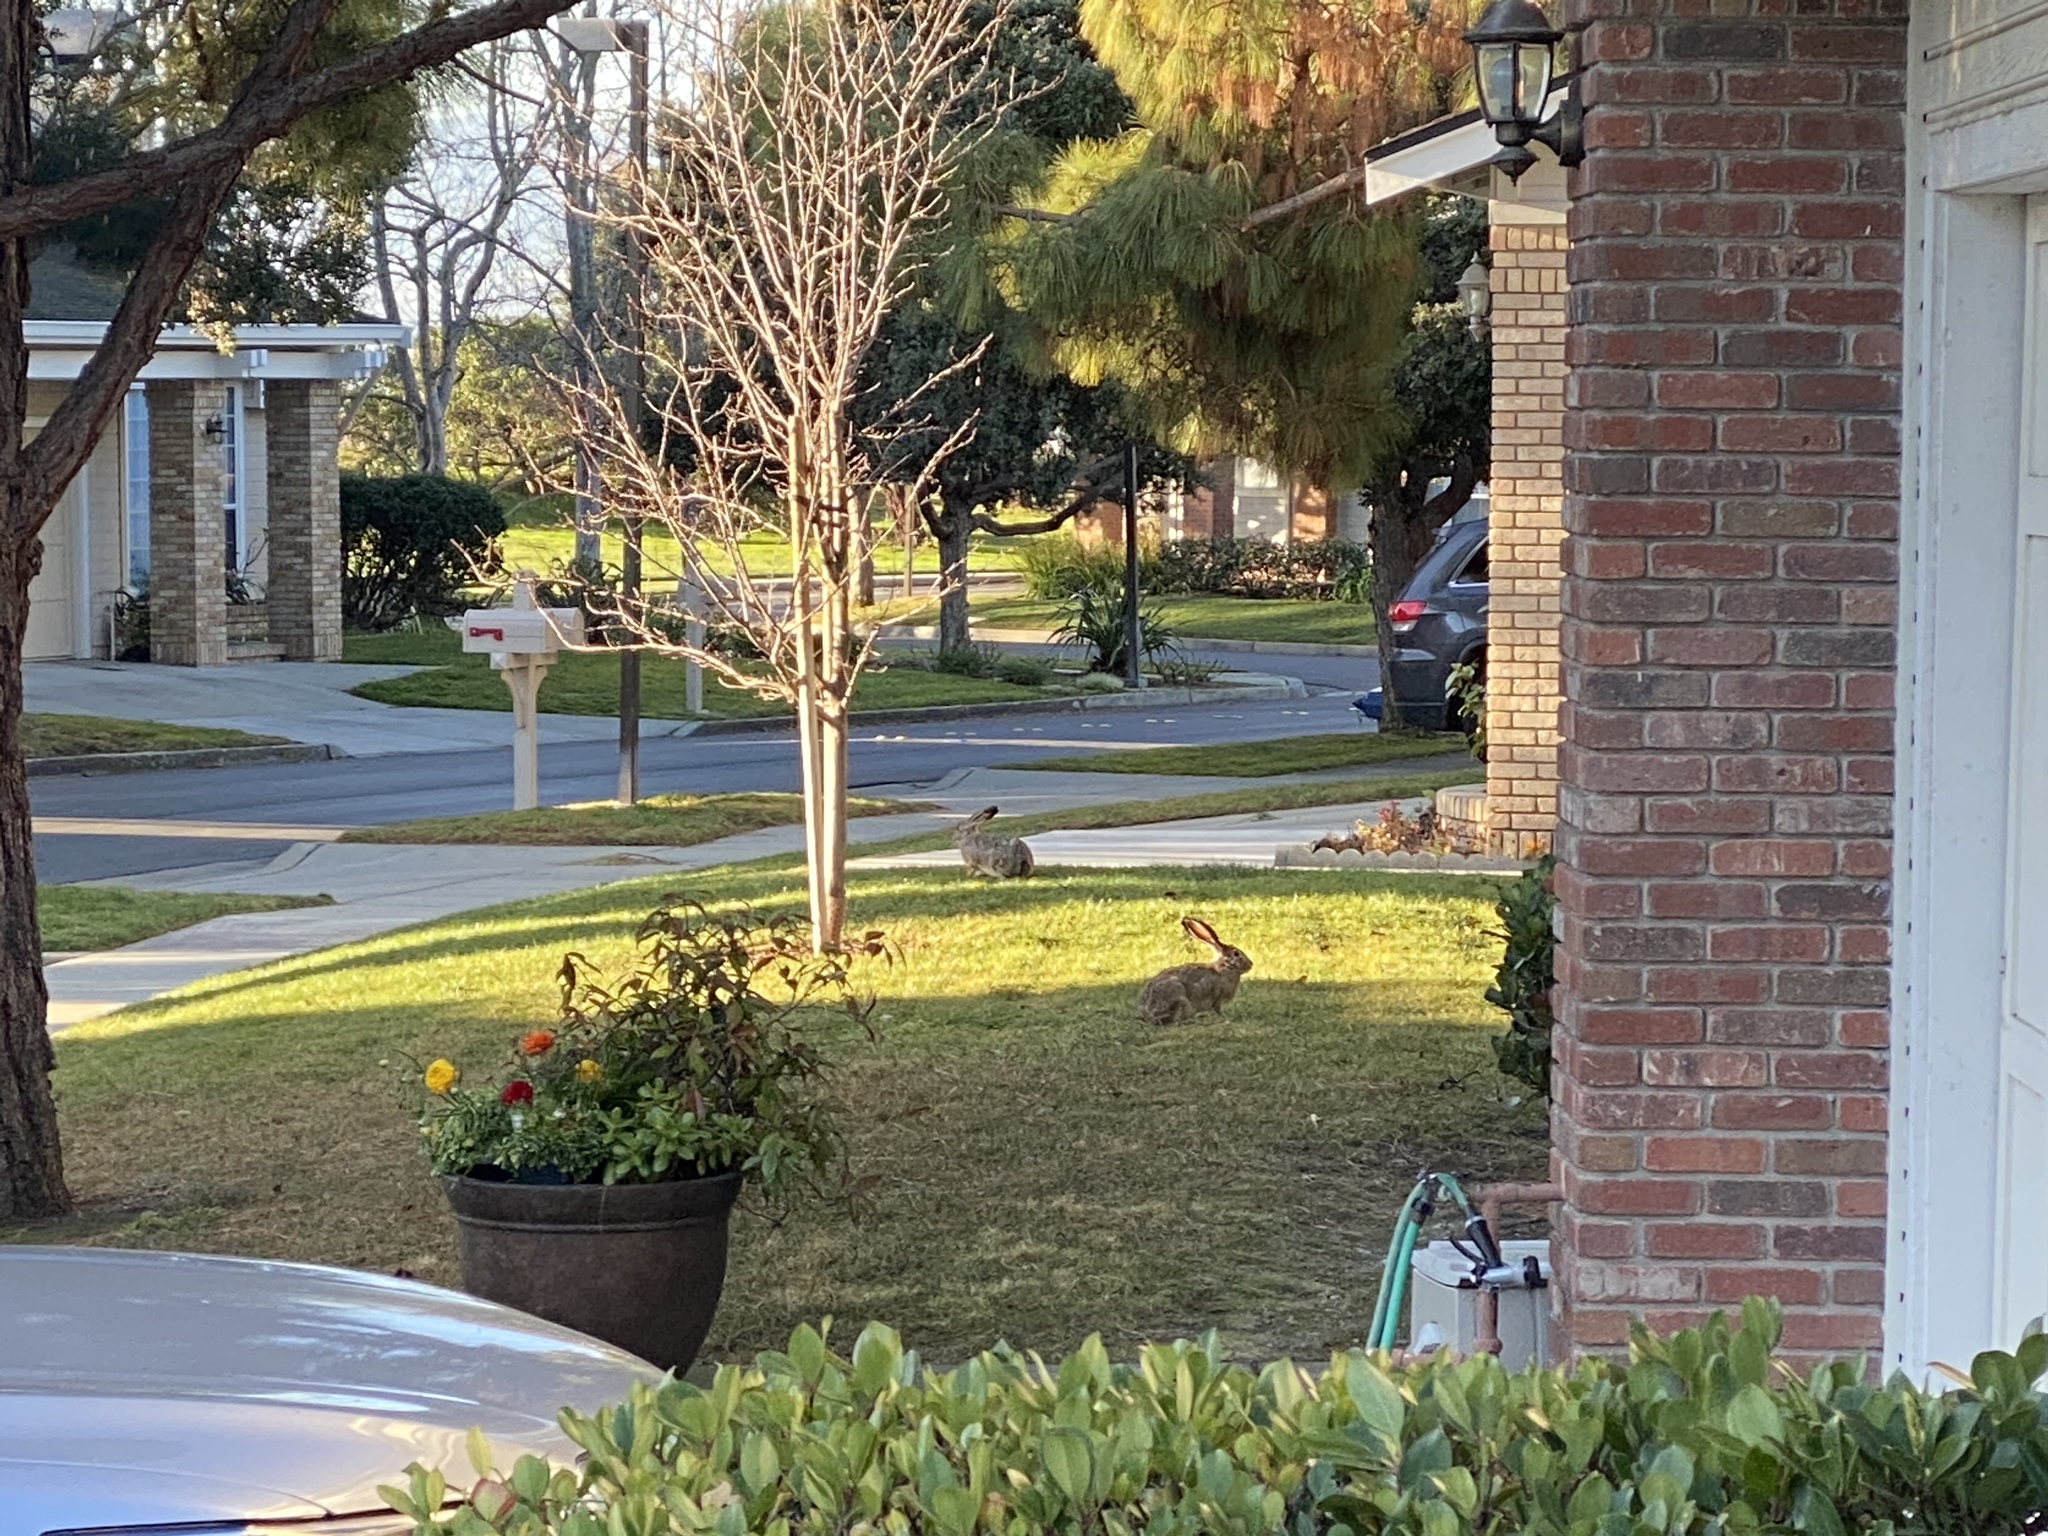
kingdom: Animalia
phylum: Chordata
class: Mammalia
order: Lagomorpha
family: Leporidae
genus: Lepus
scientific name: Lepus californicus
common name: Black-tailed jackrabbit
